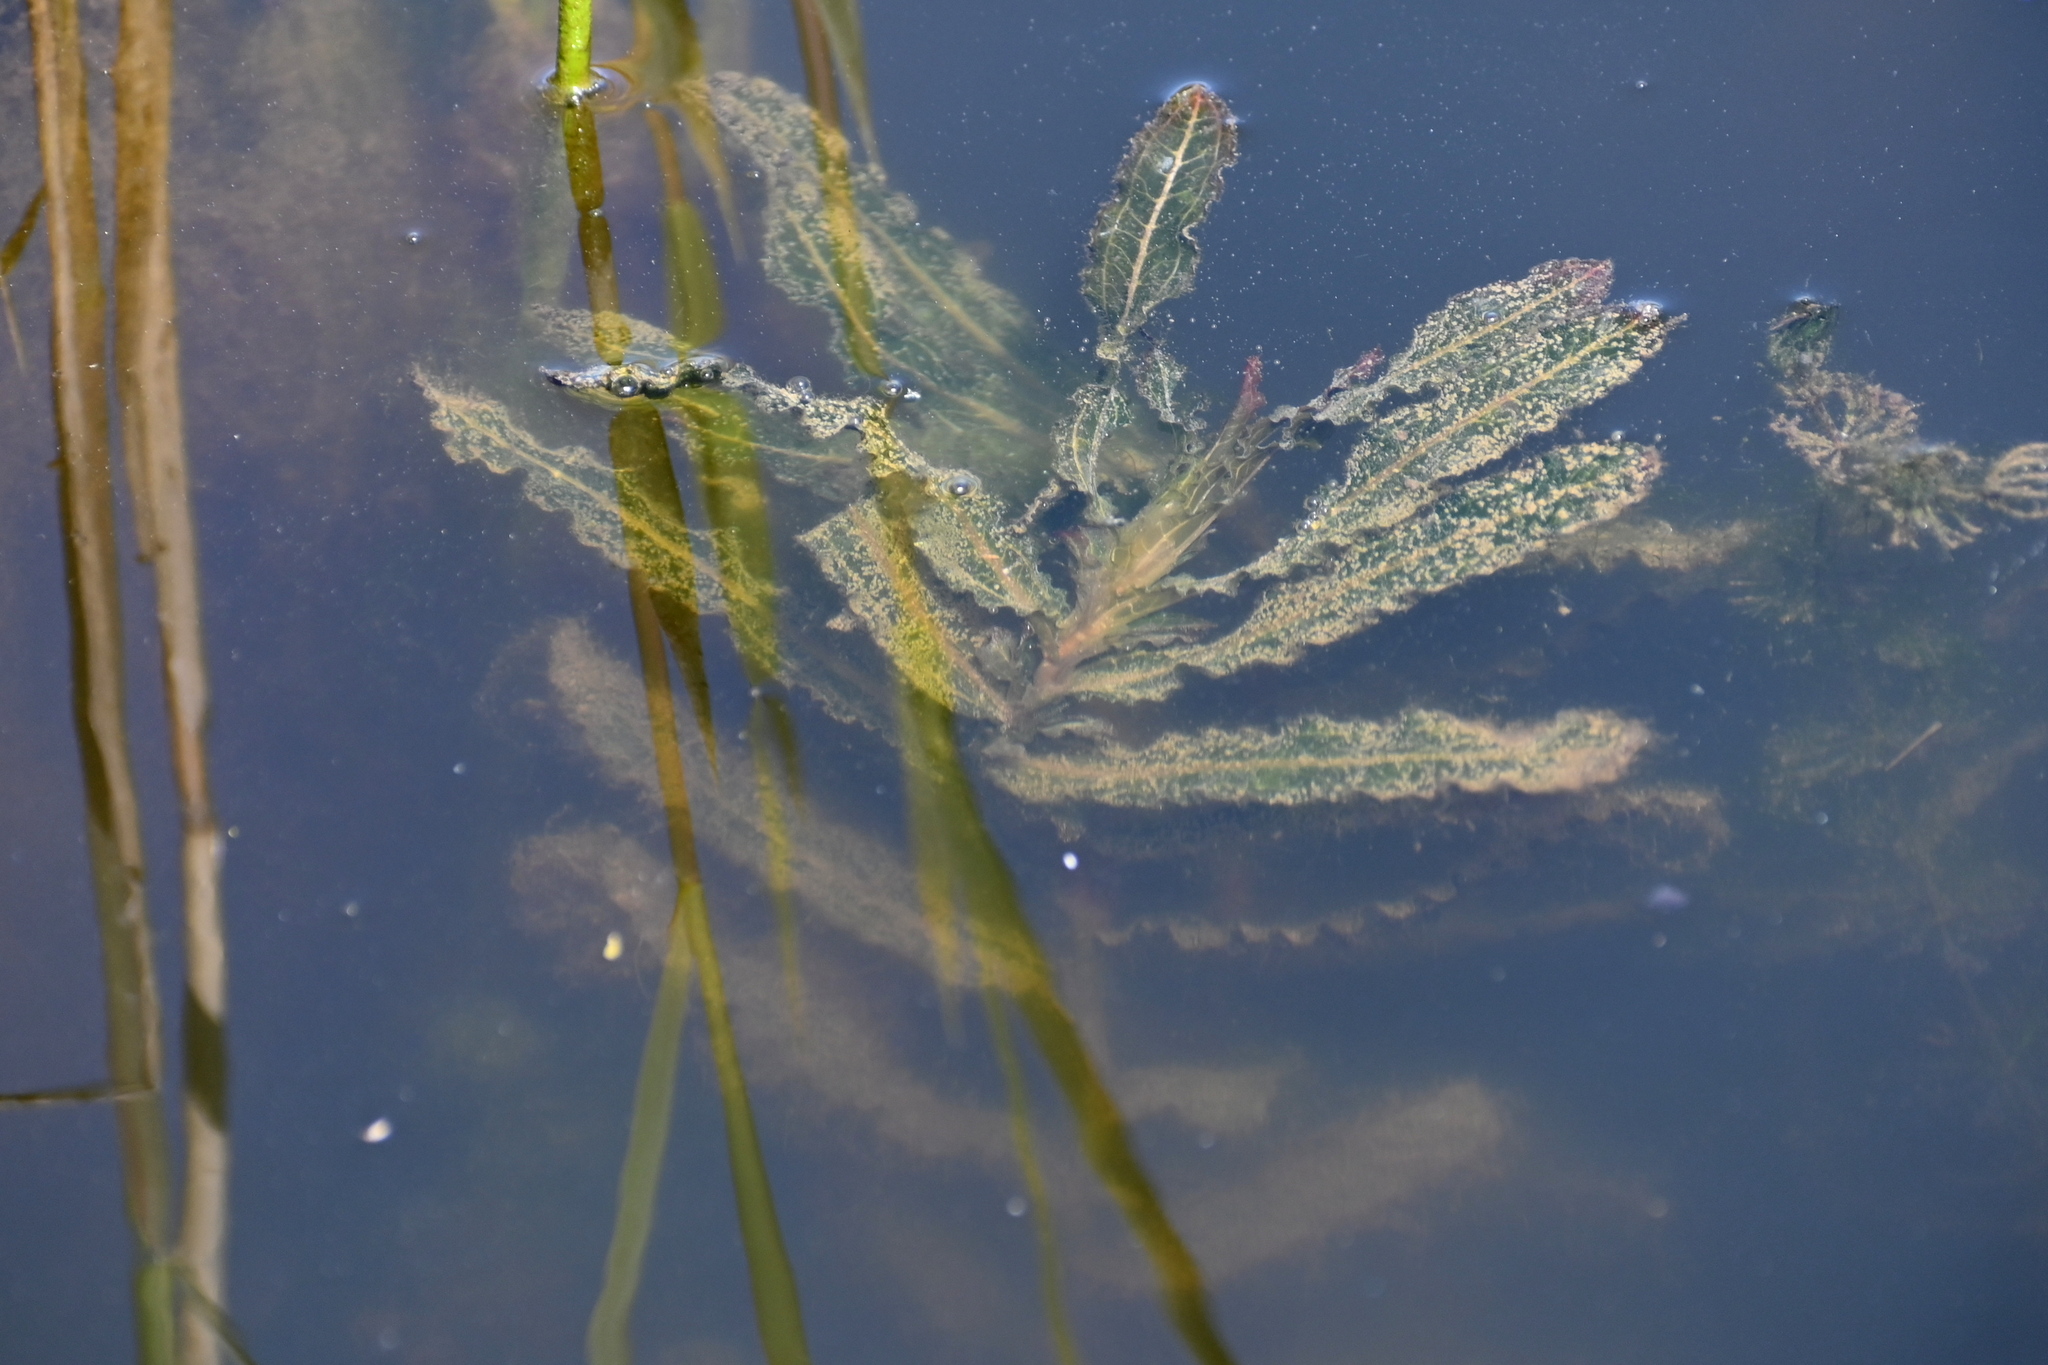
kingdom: Plantae
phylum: Tracheophyta
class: Liliopsida
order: Alismatales
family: Potamogetonaceae
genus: Potamogeton
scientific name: Potamogeton crispus
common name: Curled pondweed
